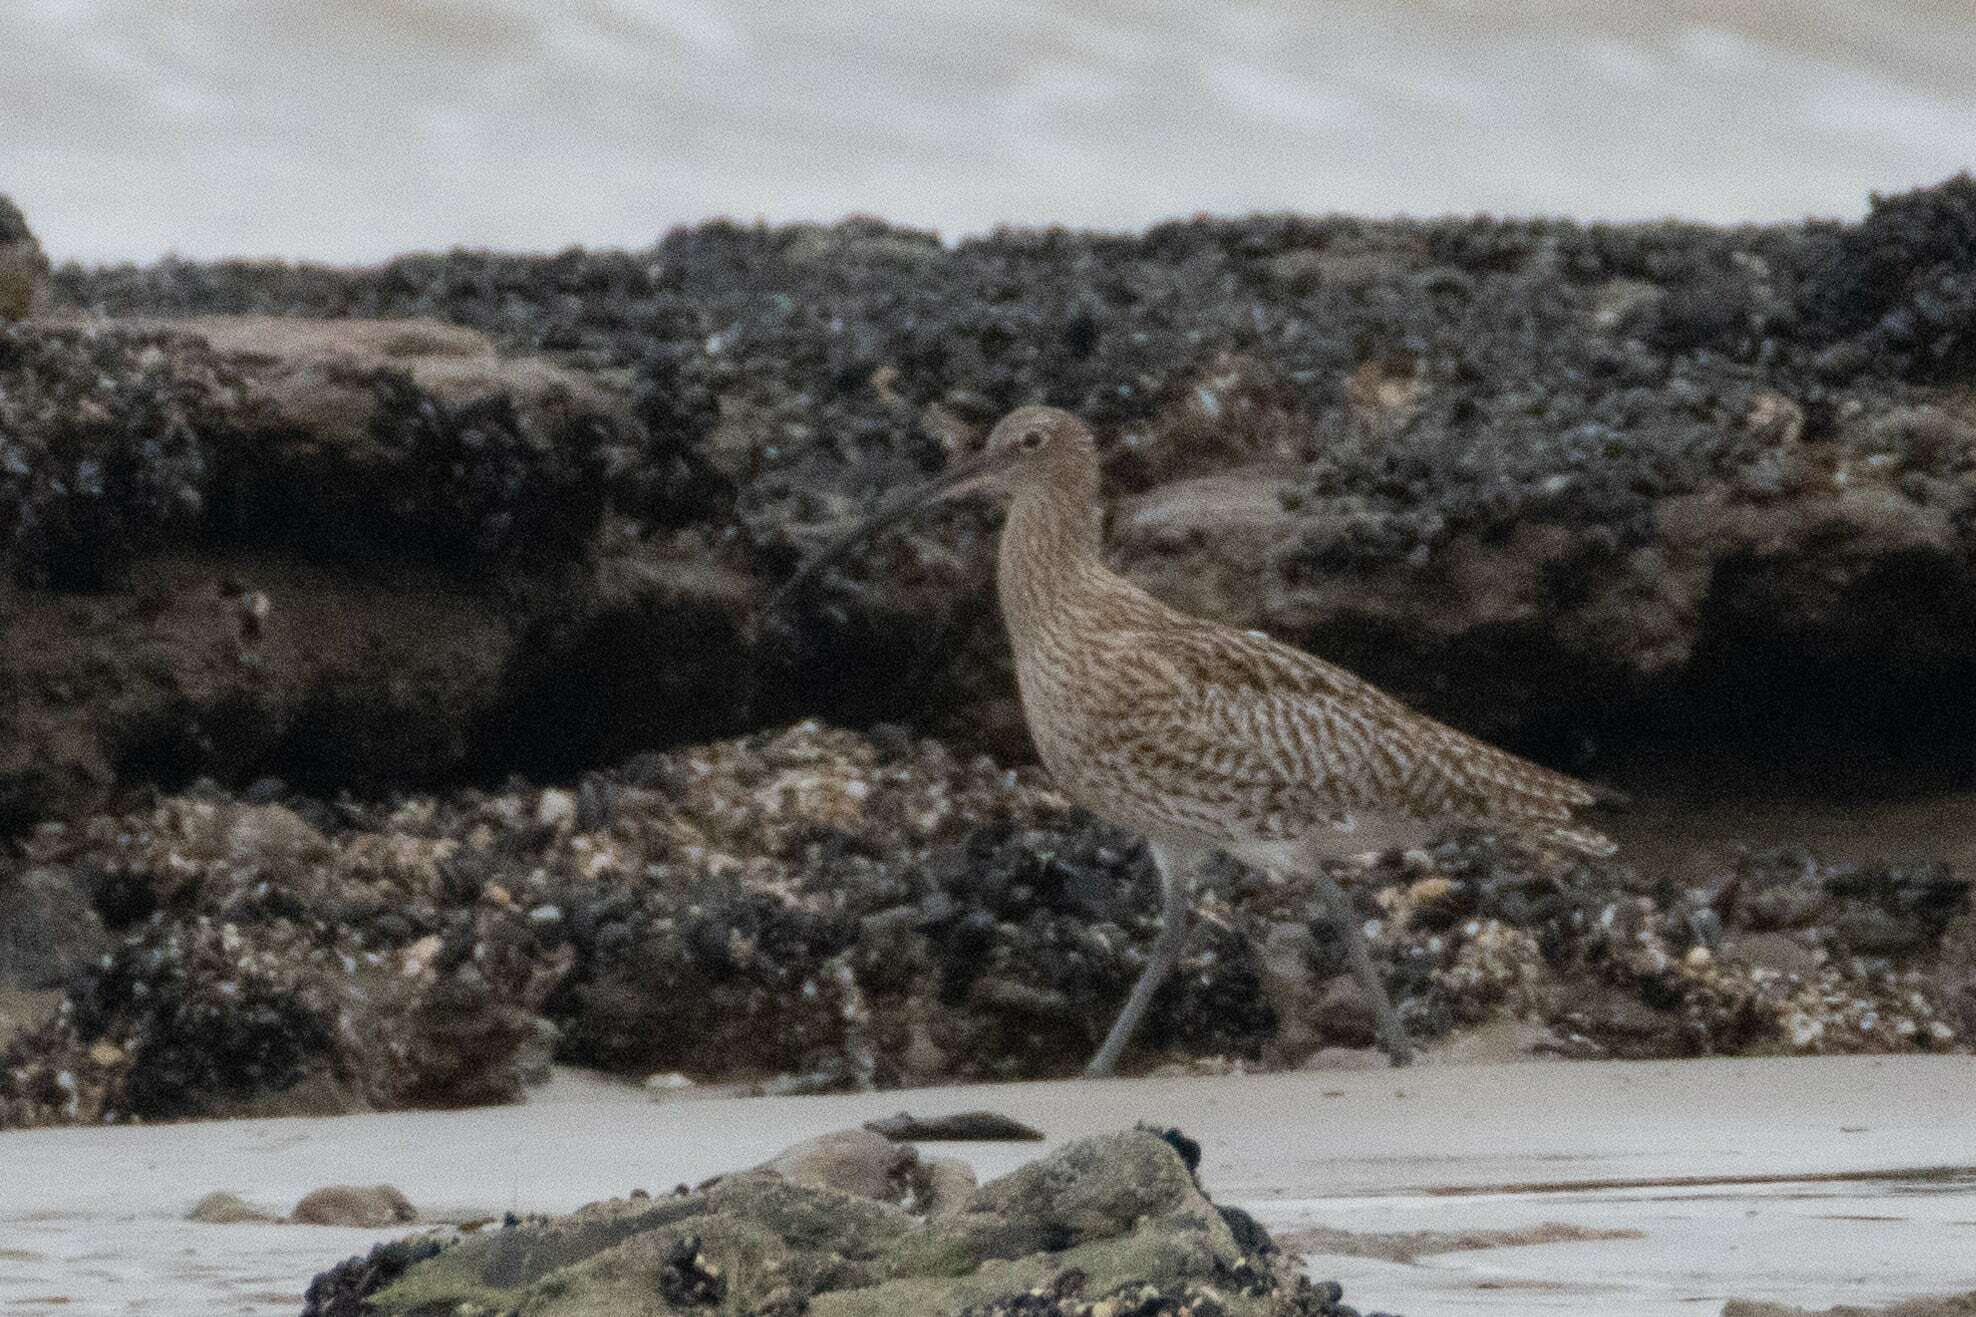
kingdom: Animalia
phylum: Chordata
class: Aves
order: Charadriiformes
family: Scolopacidae
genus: Numenius
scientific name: Numenius arquata
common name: Eurasian curlew
